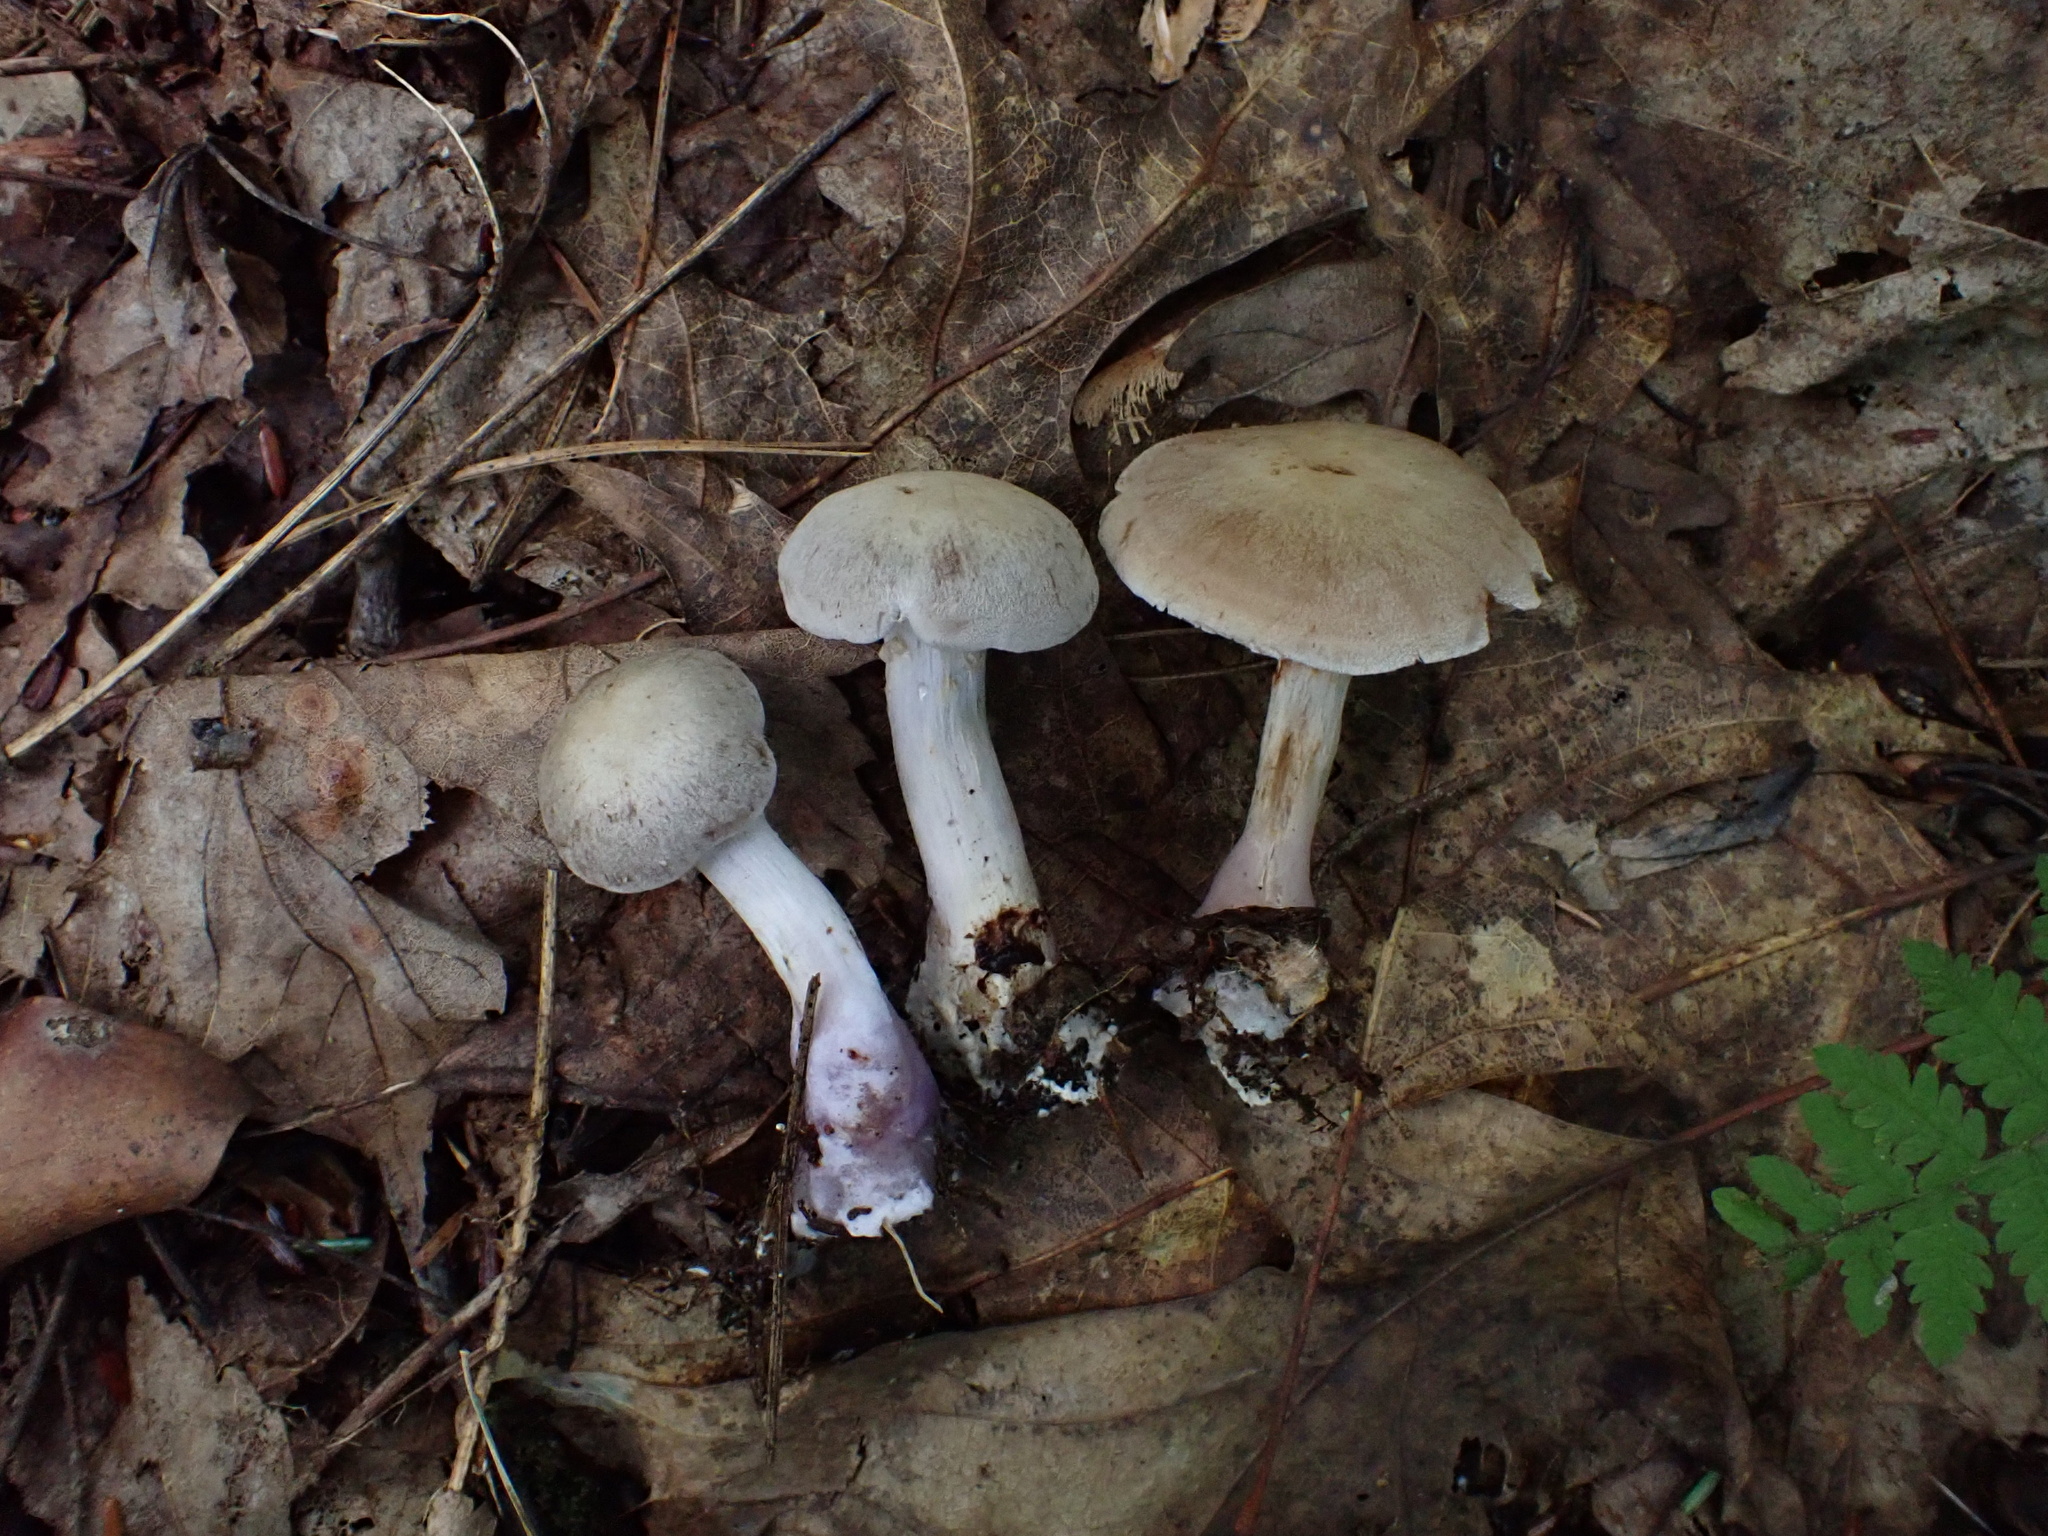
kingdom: Fungi
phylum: Basidiomycota
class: Agaricomycetes
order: Agaricales
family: Cortinariaceae
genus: Cortinarius
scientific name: Cortinarius vagabundus
